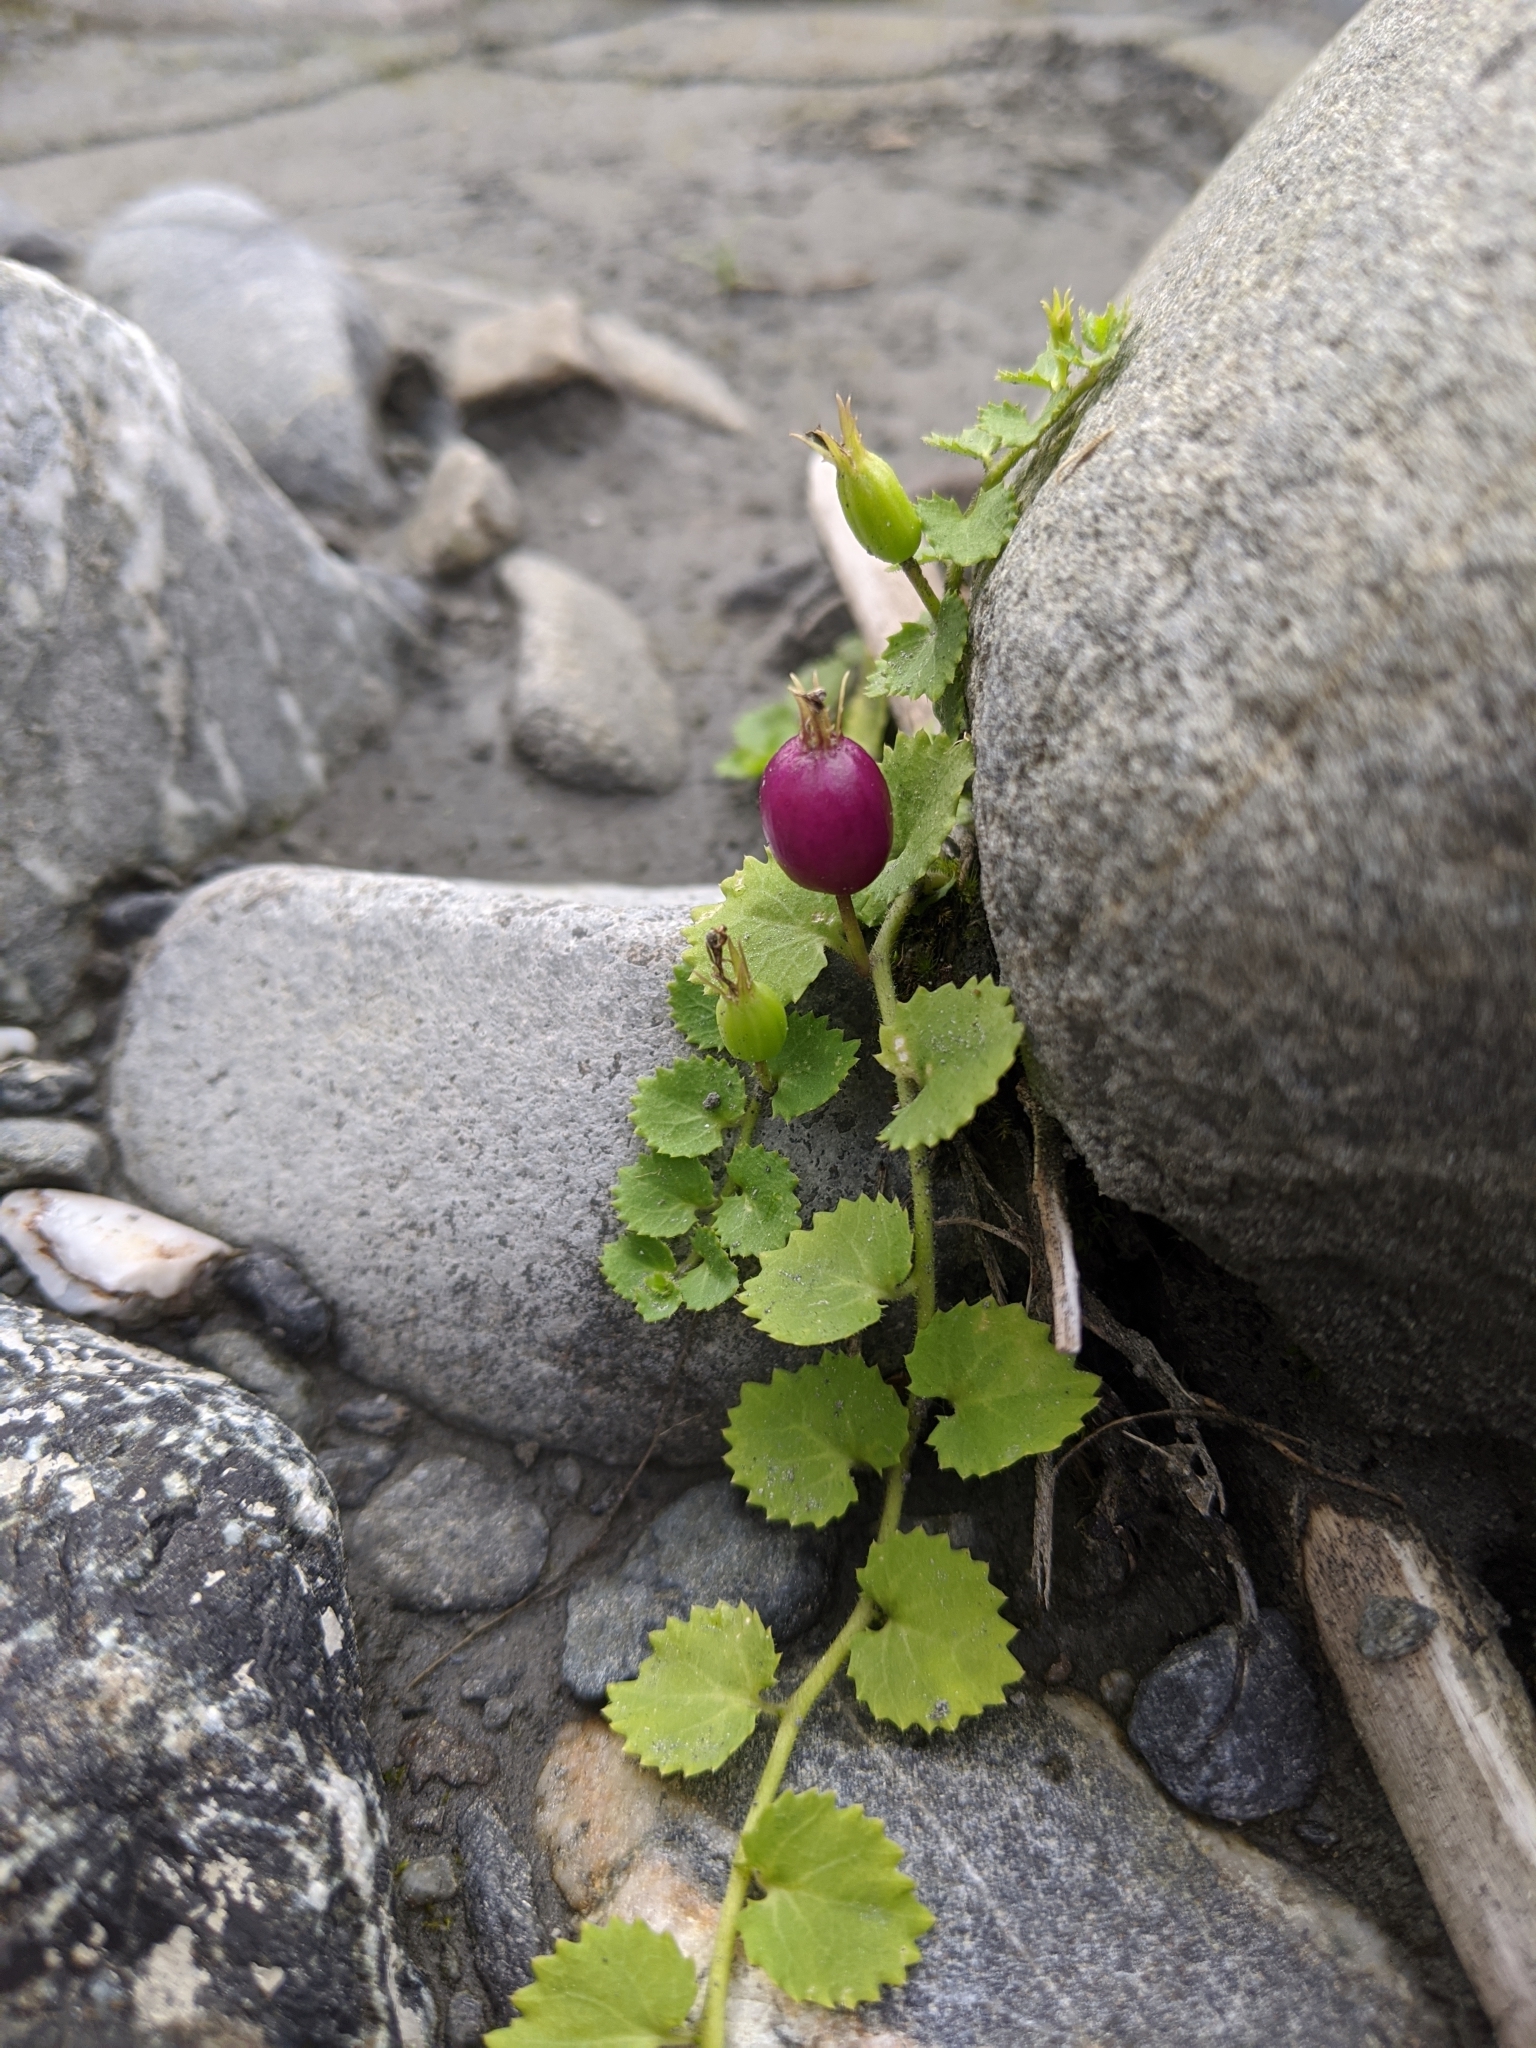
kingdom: Plantae
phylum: Tracheophyta
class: Magnoliopsida
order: Asterales
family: Campanulaceae
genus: Lobelia
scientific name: Lobelia nummularia
